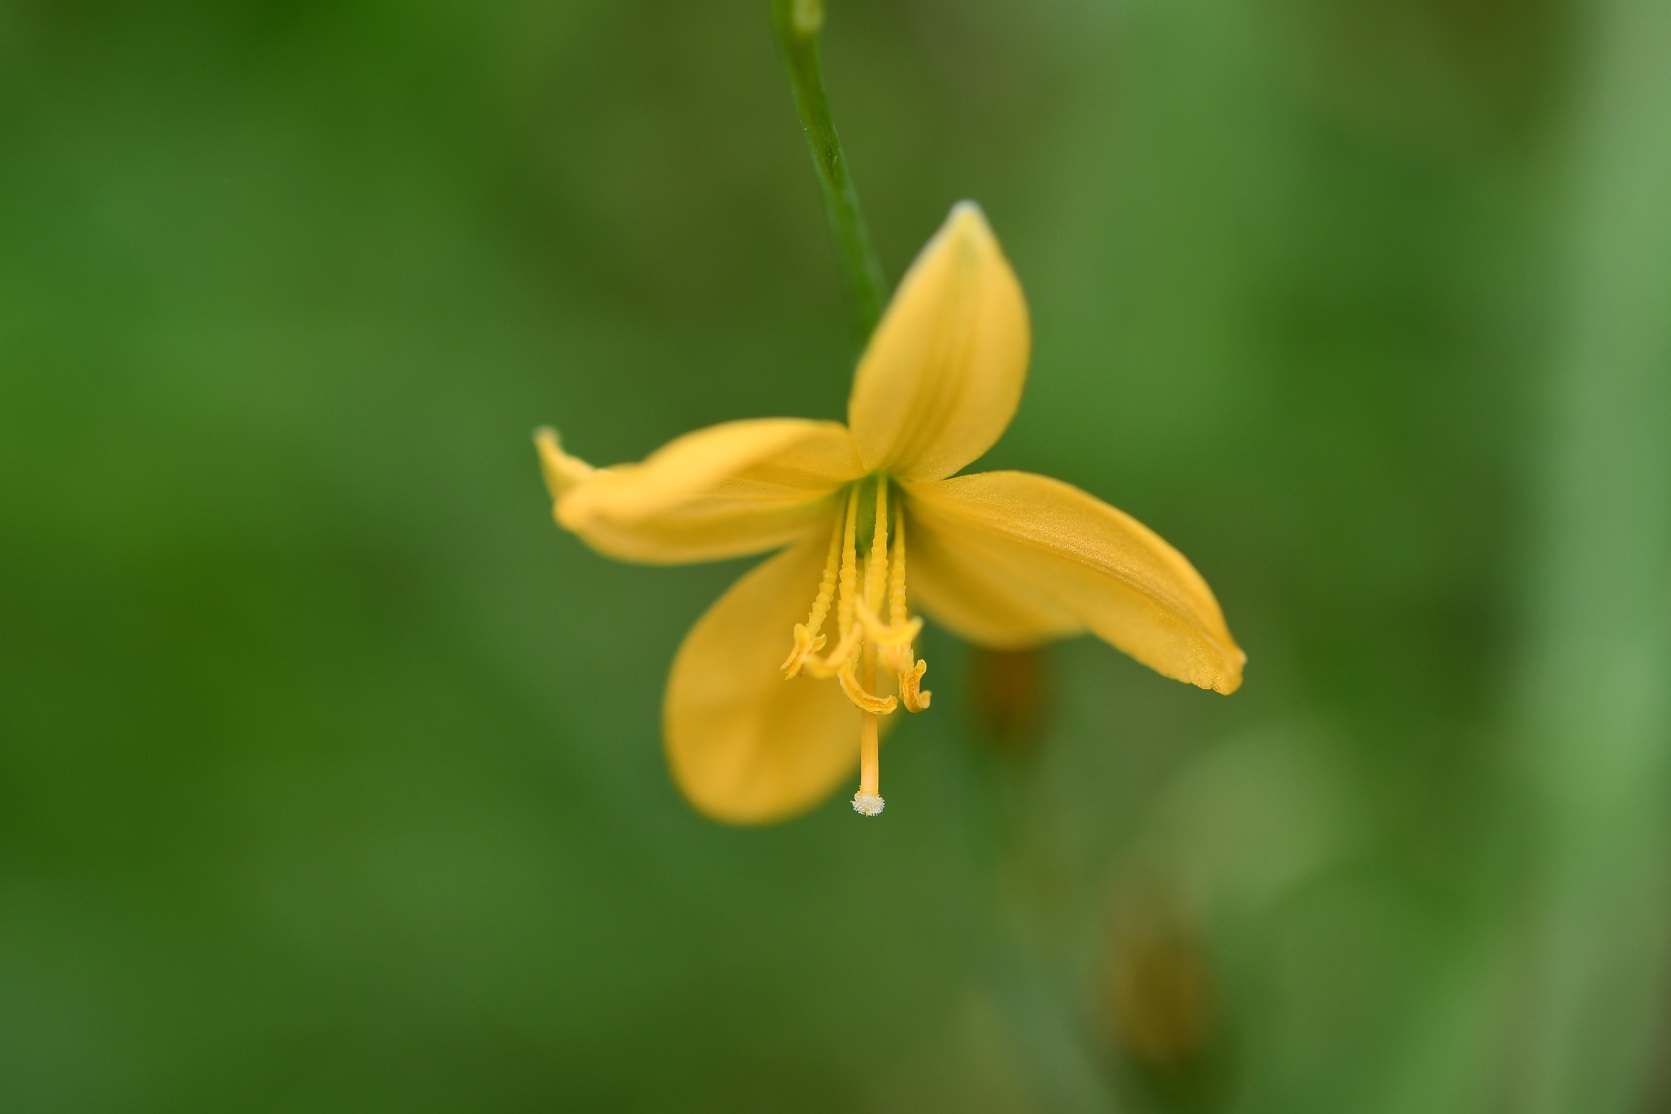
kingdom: Plantae
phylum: Tracheophyta
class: Liliopsida
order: Asparagales
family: Asparagaceae
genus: Echeandia
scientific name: Echeandia skinneri
